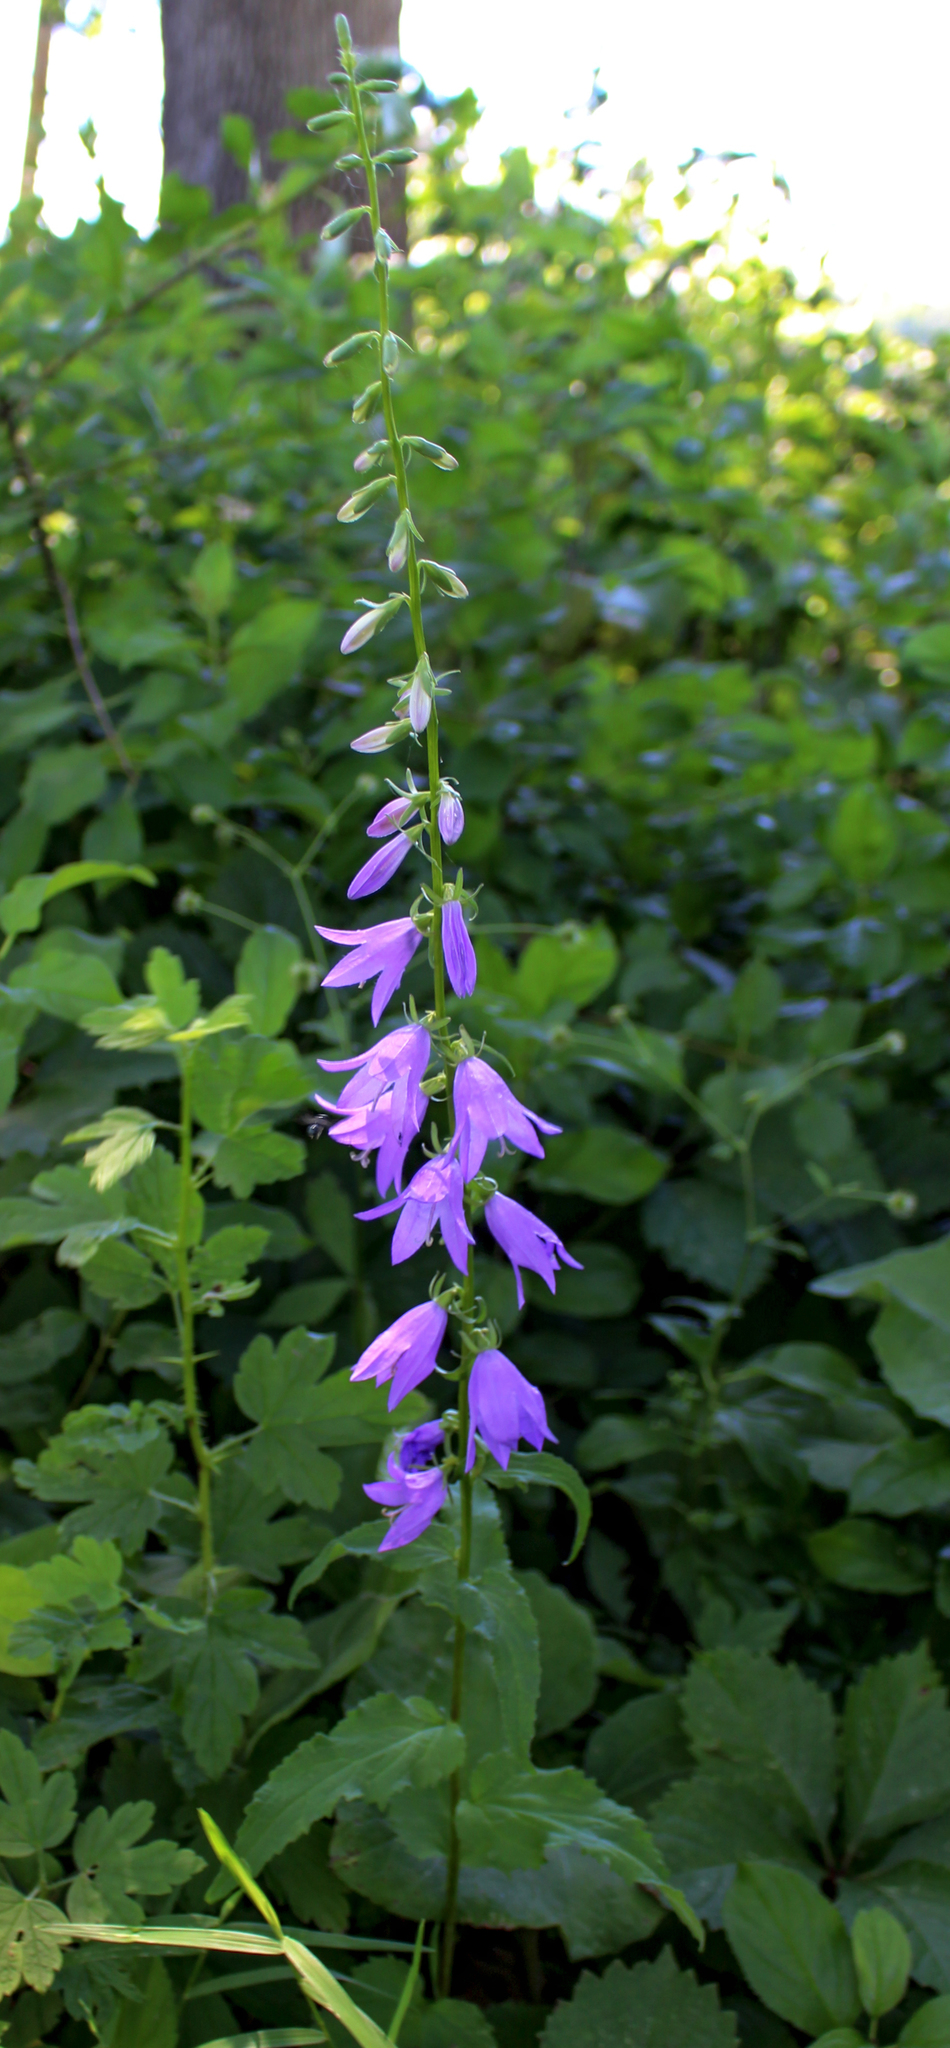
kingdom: Plantae
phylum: Tracheophyta
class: Magnoliopsida
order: Asterales
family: Campanulaceae
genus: Campanula
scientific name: Campanula rapunculoides
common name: Creeping bellflower
